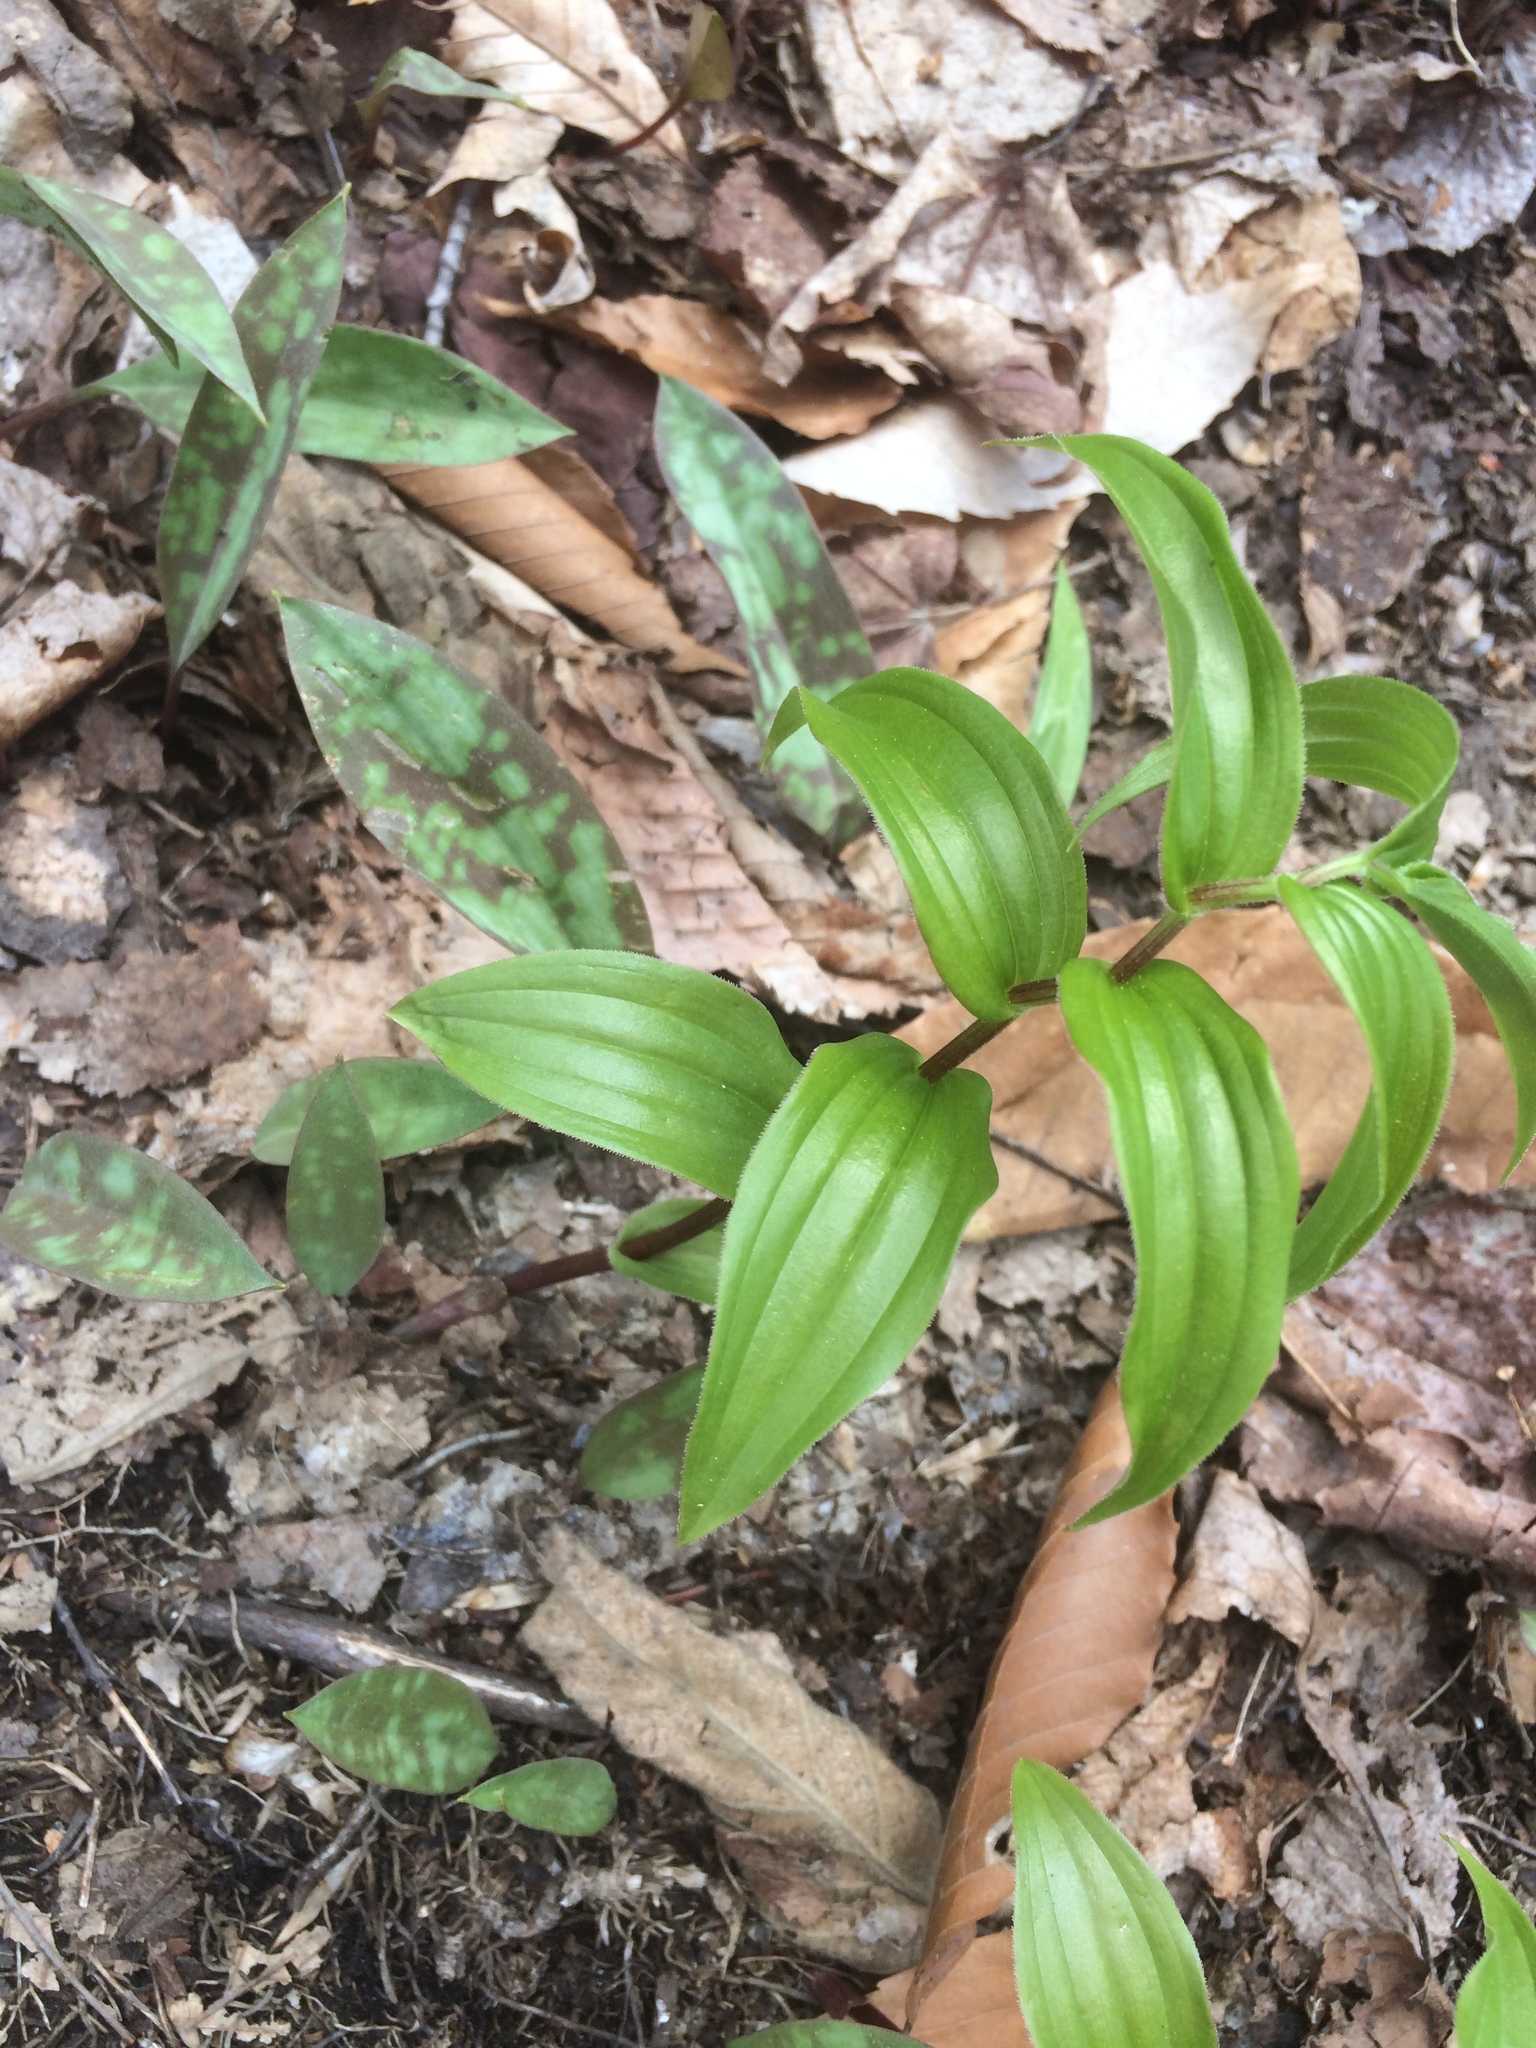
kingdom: Plantae
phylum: Tracheophyta
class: Liliopsida
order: Liliales
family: Liliaceae
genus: Streptopus
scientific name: Streptopus lanceolatus
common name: Rose mandarin
